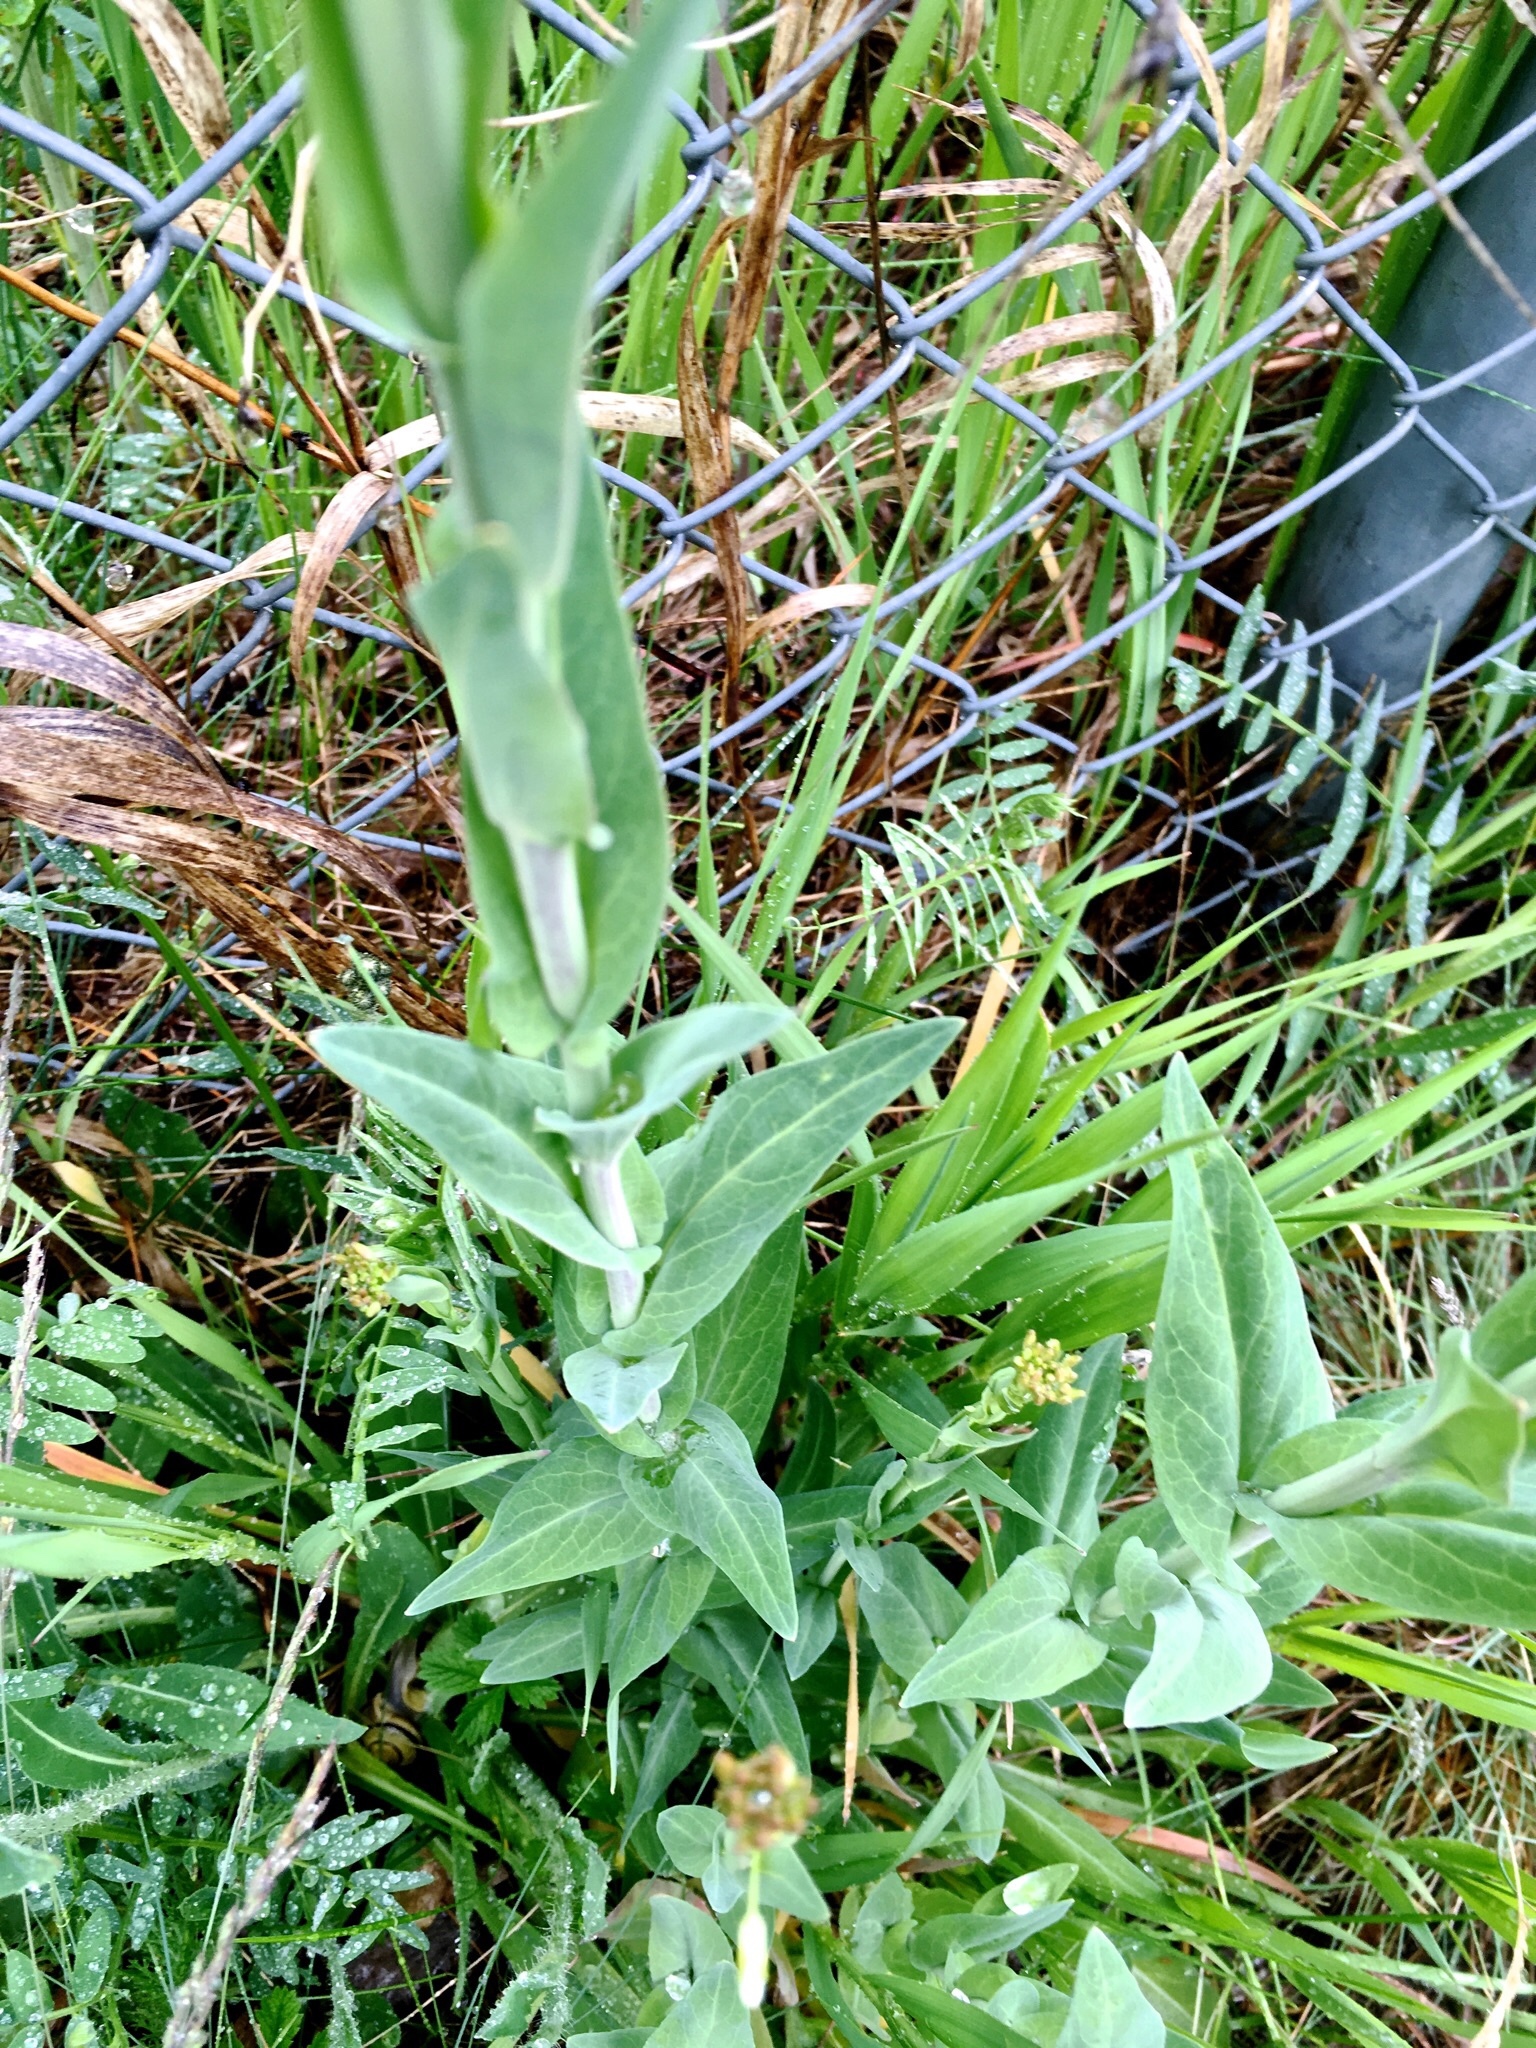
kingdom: Plantae
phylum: Tracheophyta
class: Magnoliopsida
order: Brassicales
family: Brassicaceae
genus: Turritis
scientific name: Turritis glabra
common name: Tower rockcress
